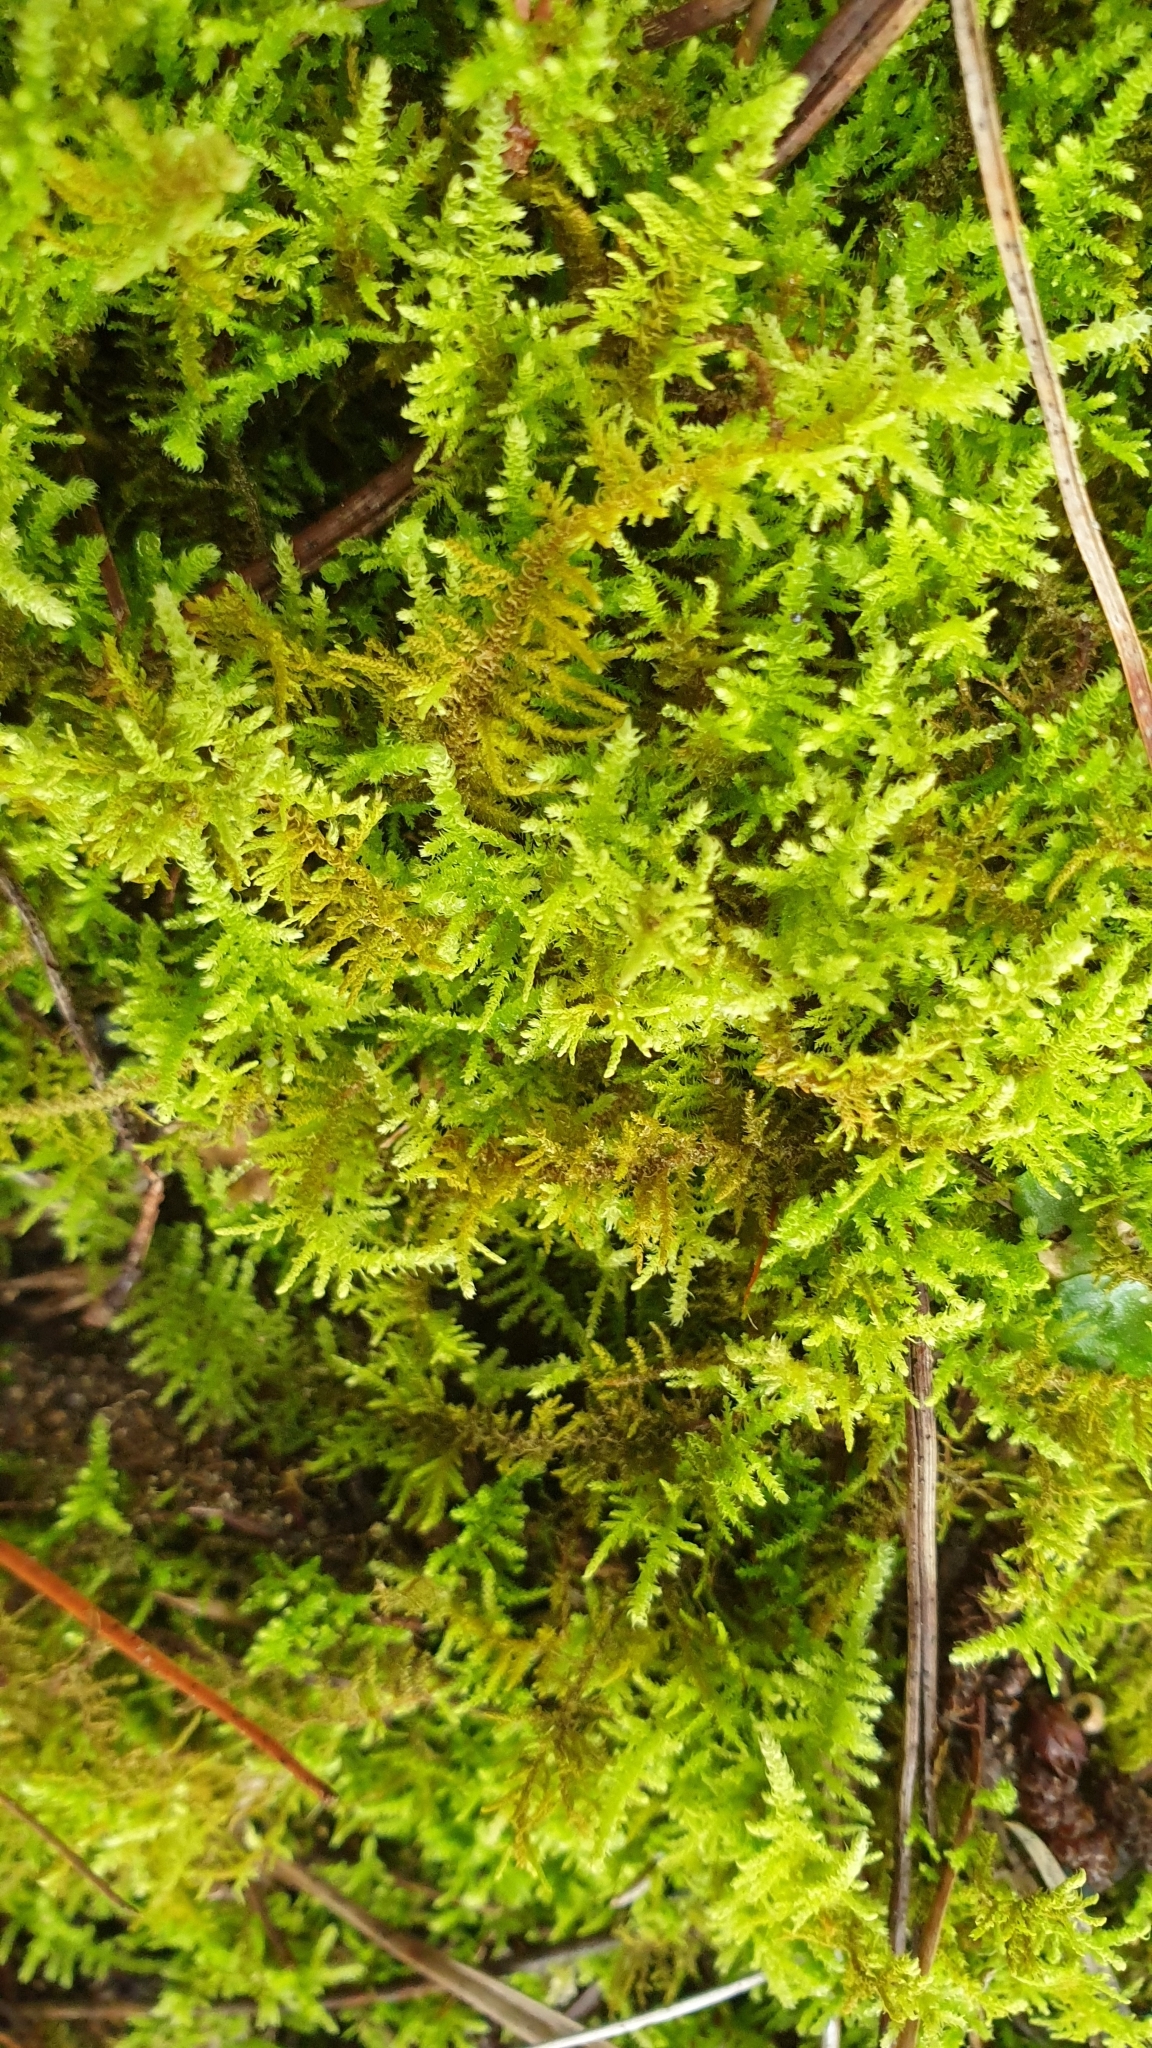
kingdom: Plantae
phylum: Bryophyta
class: Bryopsida
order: Hypnales
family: Thuidiaceae
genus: Thuidiopsis
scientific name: Thuidiopsis sparsa
